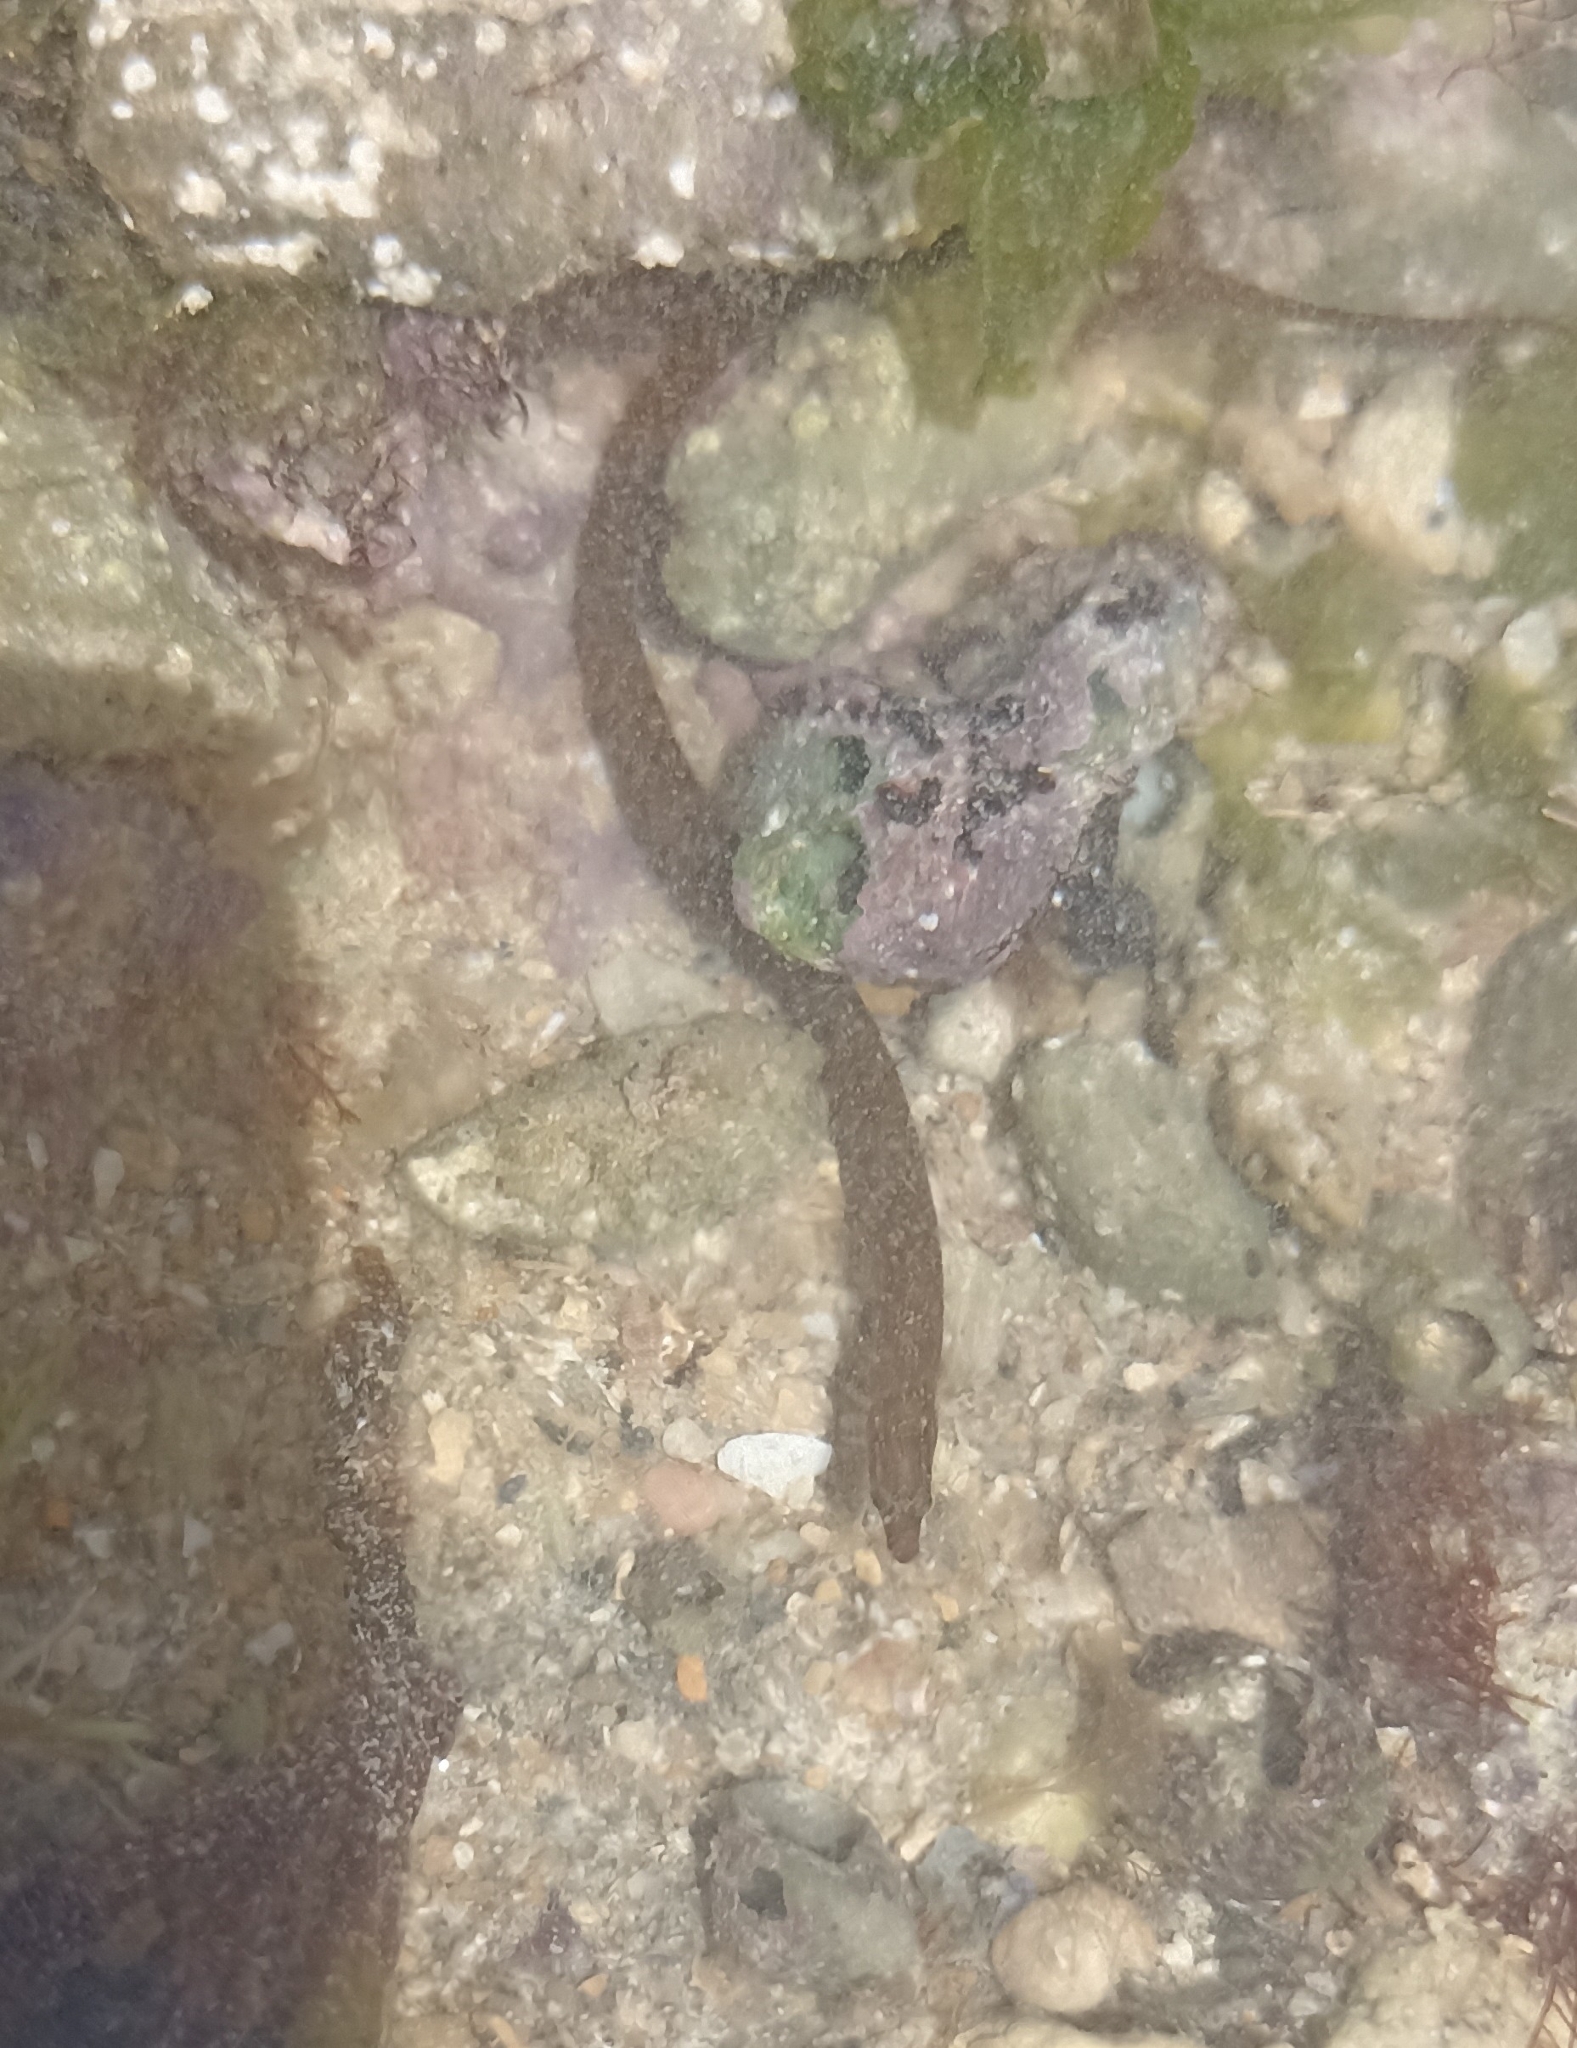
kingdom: Animalia
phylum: Chordata
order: Syngnathiformes
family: Syngnathidae
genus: Nerophis
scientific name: Nerophis lumbriciformis
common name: Worm pipefish
